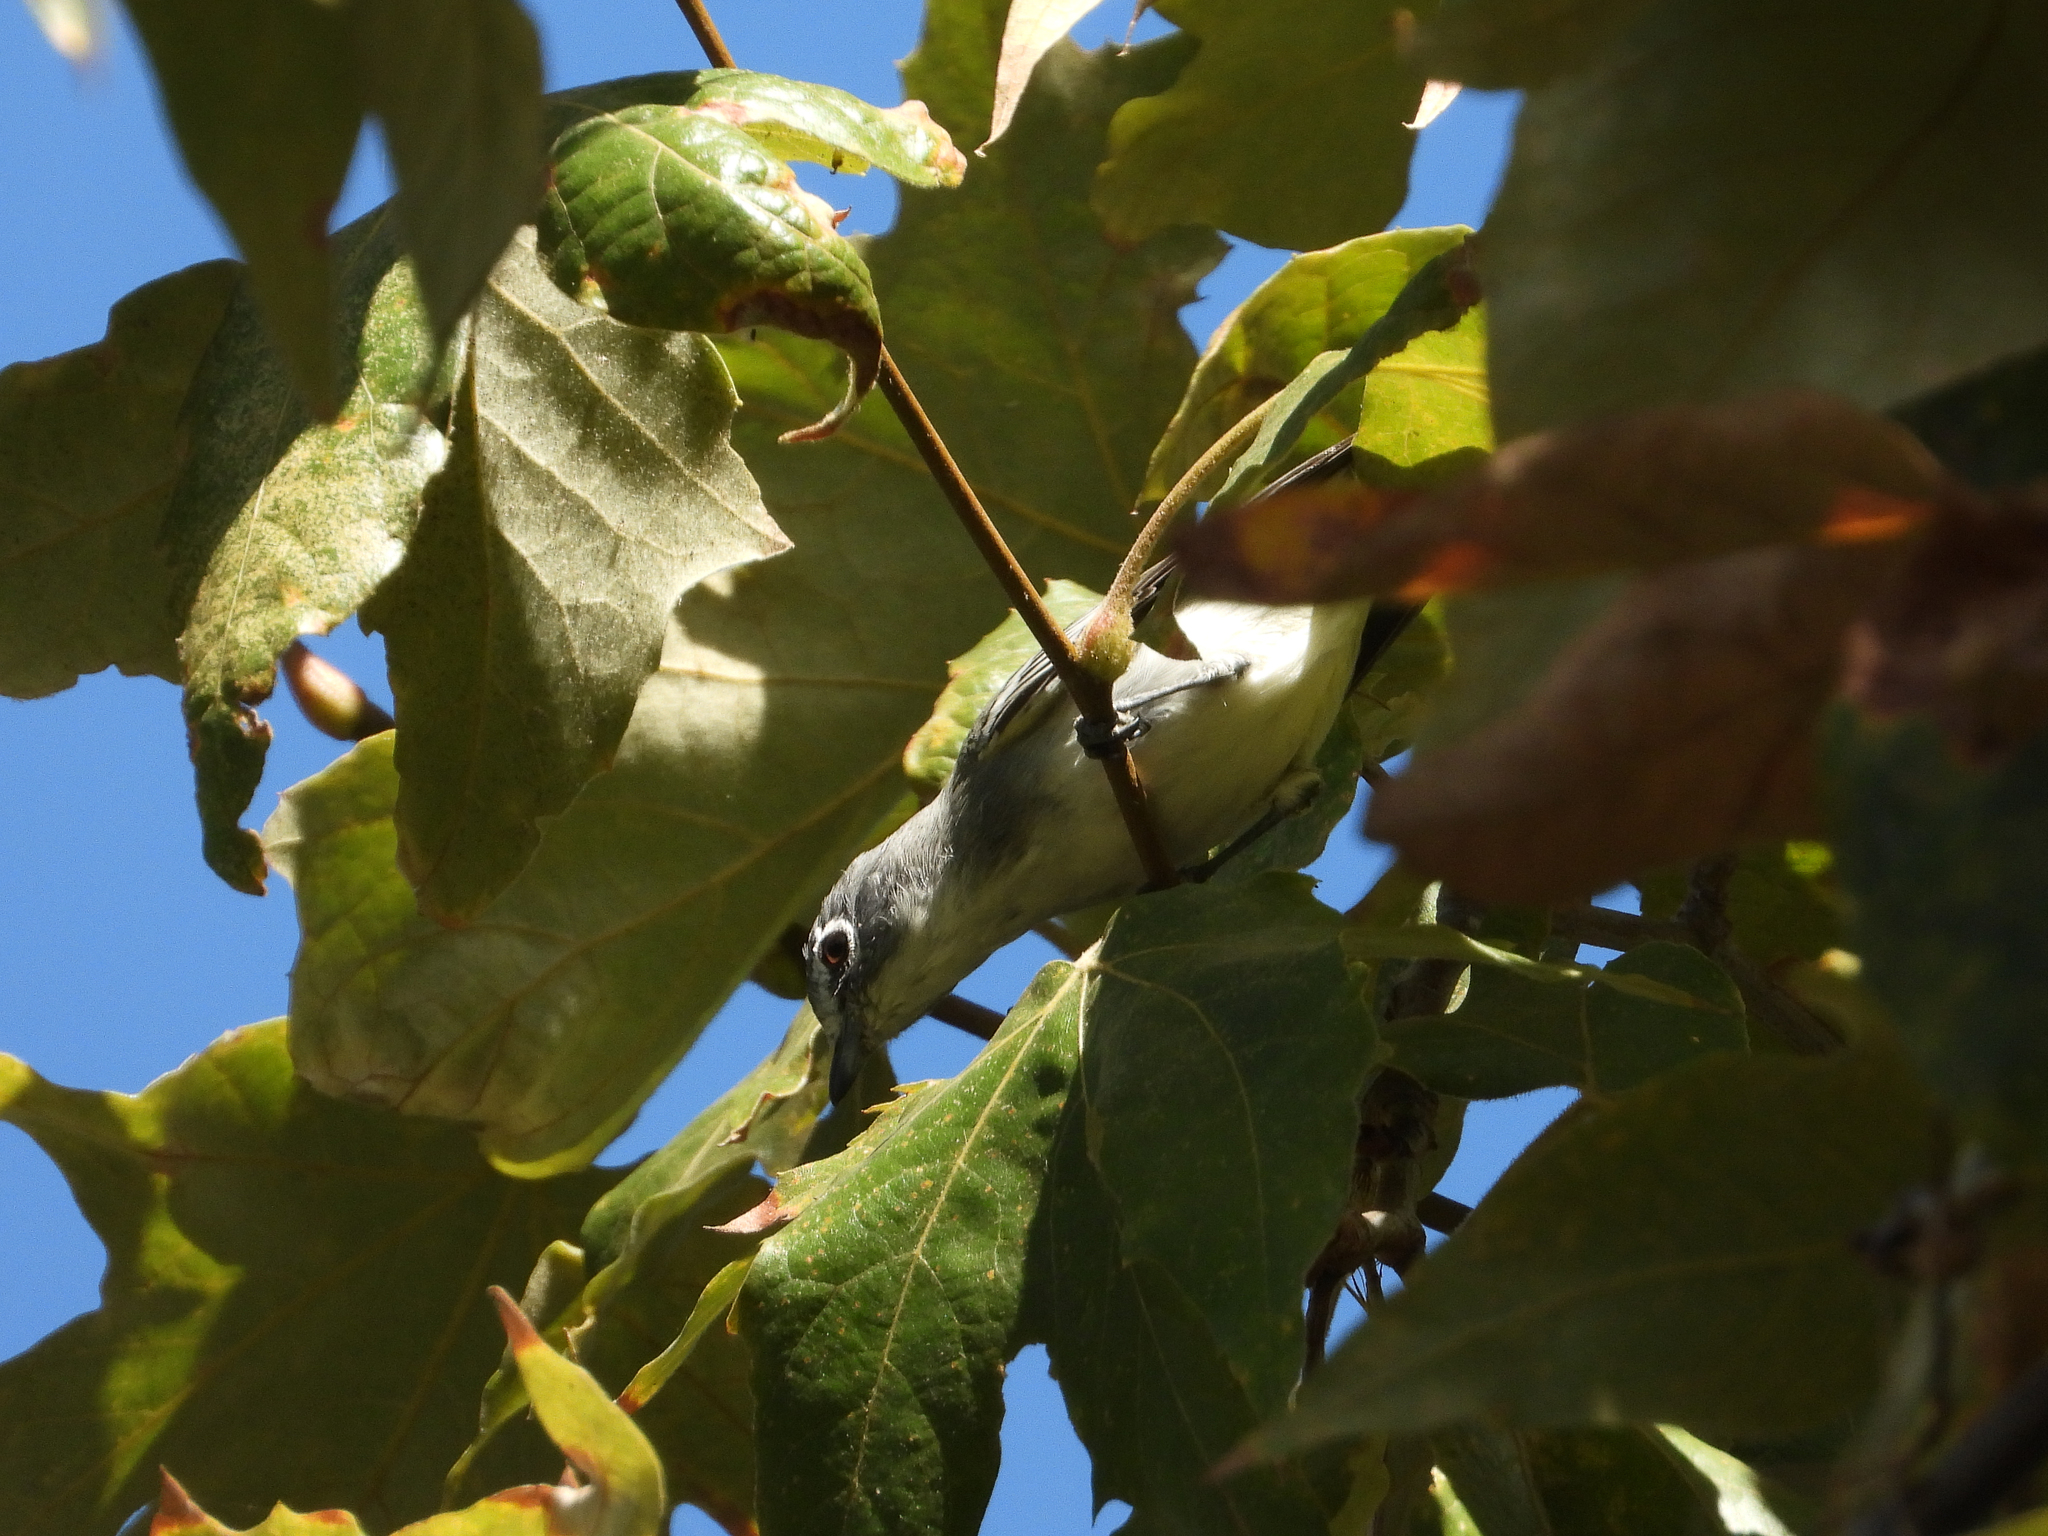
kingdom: Animalia
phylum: Chordata
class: Aves
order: Passeriformes
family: Vireonidae
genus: Vireo
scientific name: Vireo plumbeus
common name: Plumbeous vireo
